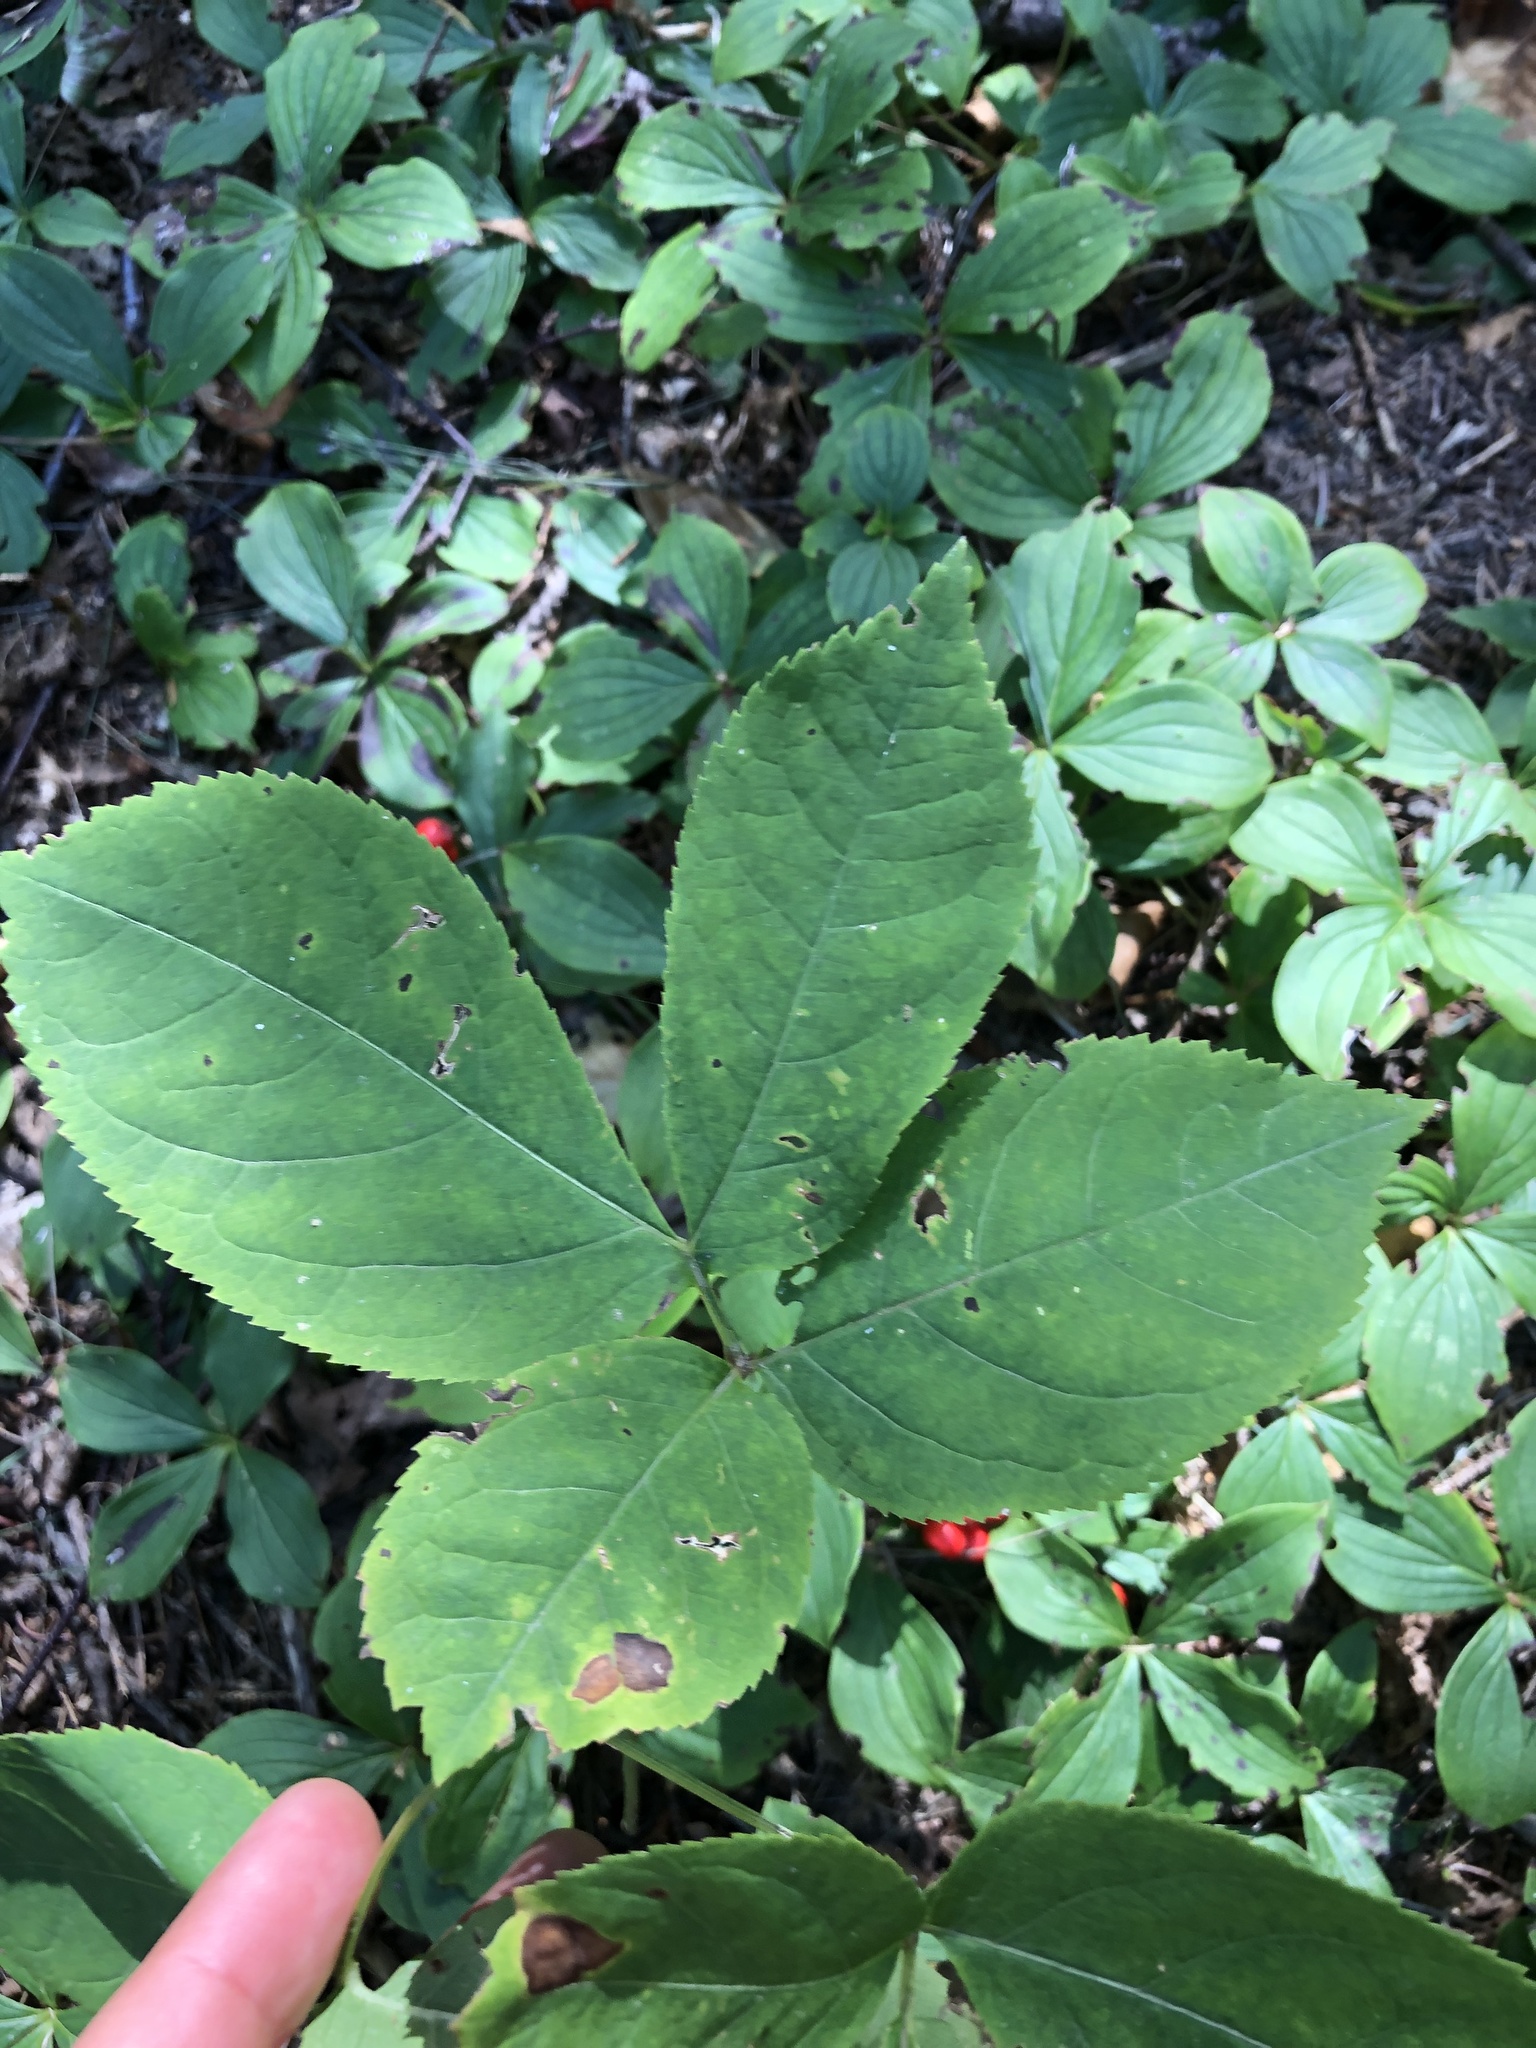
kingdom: Plantae
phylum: Tracheophyta
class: Magnoliopsida
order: Apiales
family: Araliaceae
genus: Aralia
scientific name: Aralia nudicaulis
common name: Wild sarsaparilla
